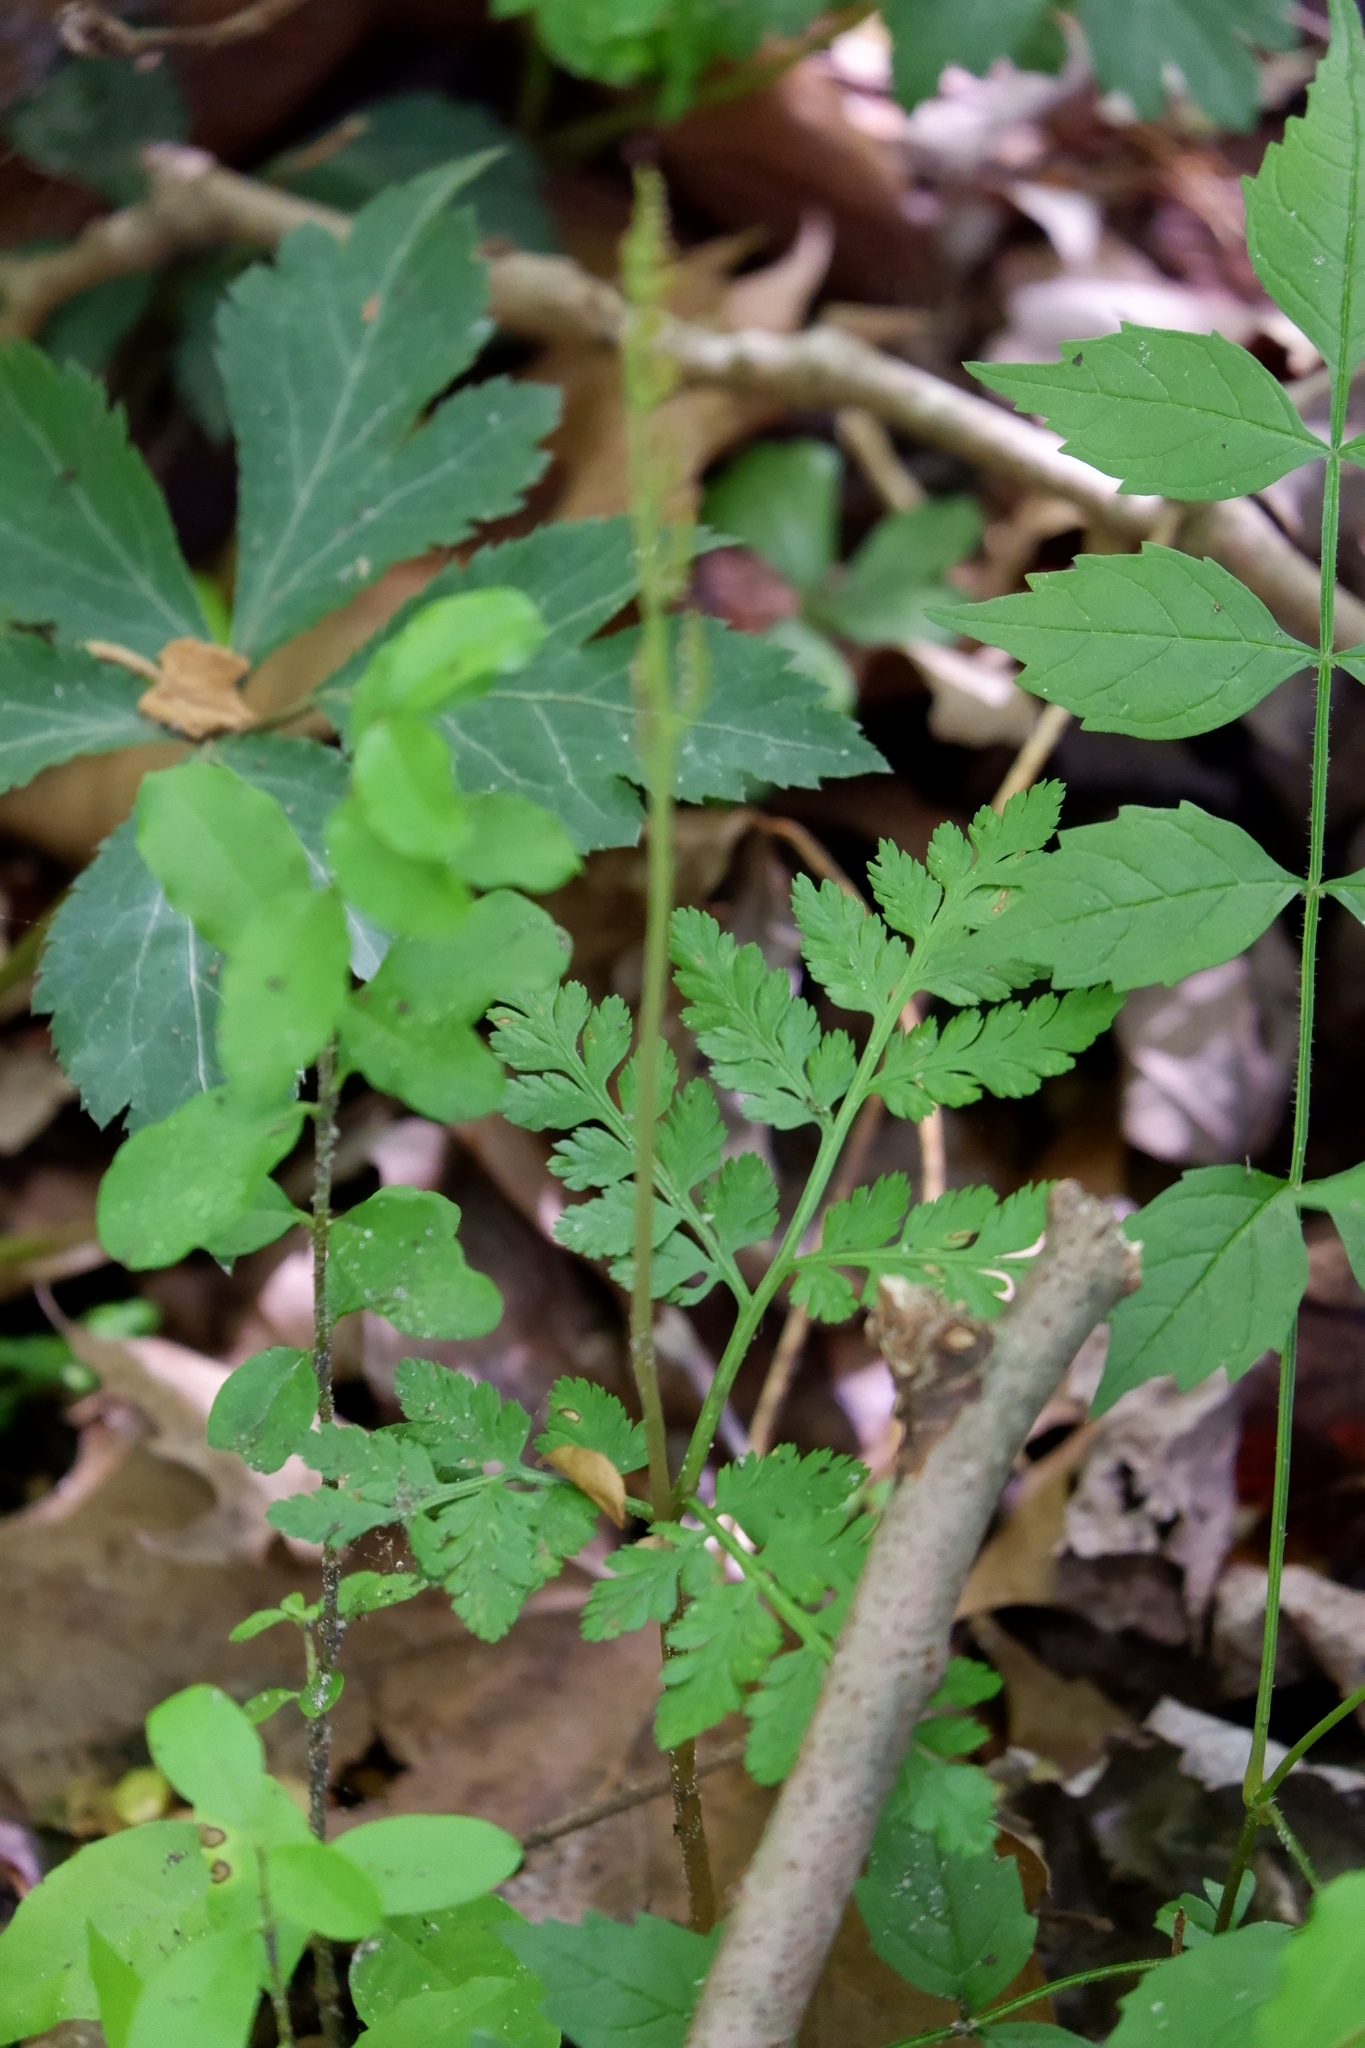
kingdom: Plantae
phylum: Tracheophyta
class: Polypodiopsida
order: Ophioglossales
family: Ophioglossaceae
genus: Botrypus
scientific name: Botrypus virginianus
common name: Common grapefern
